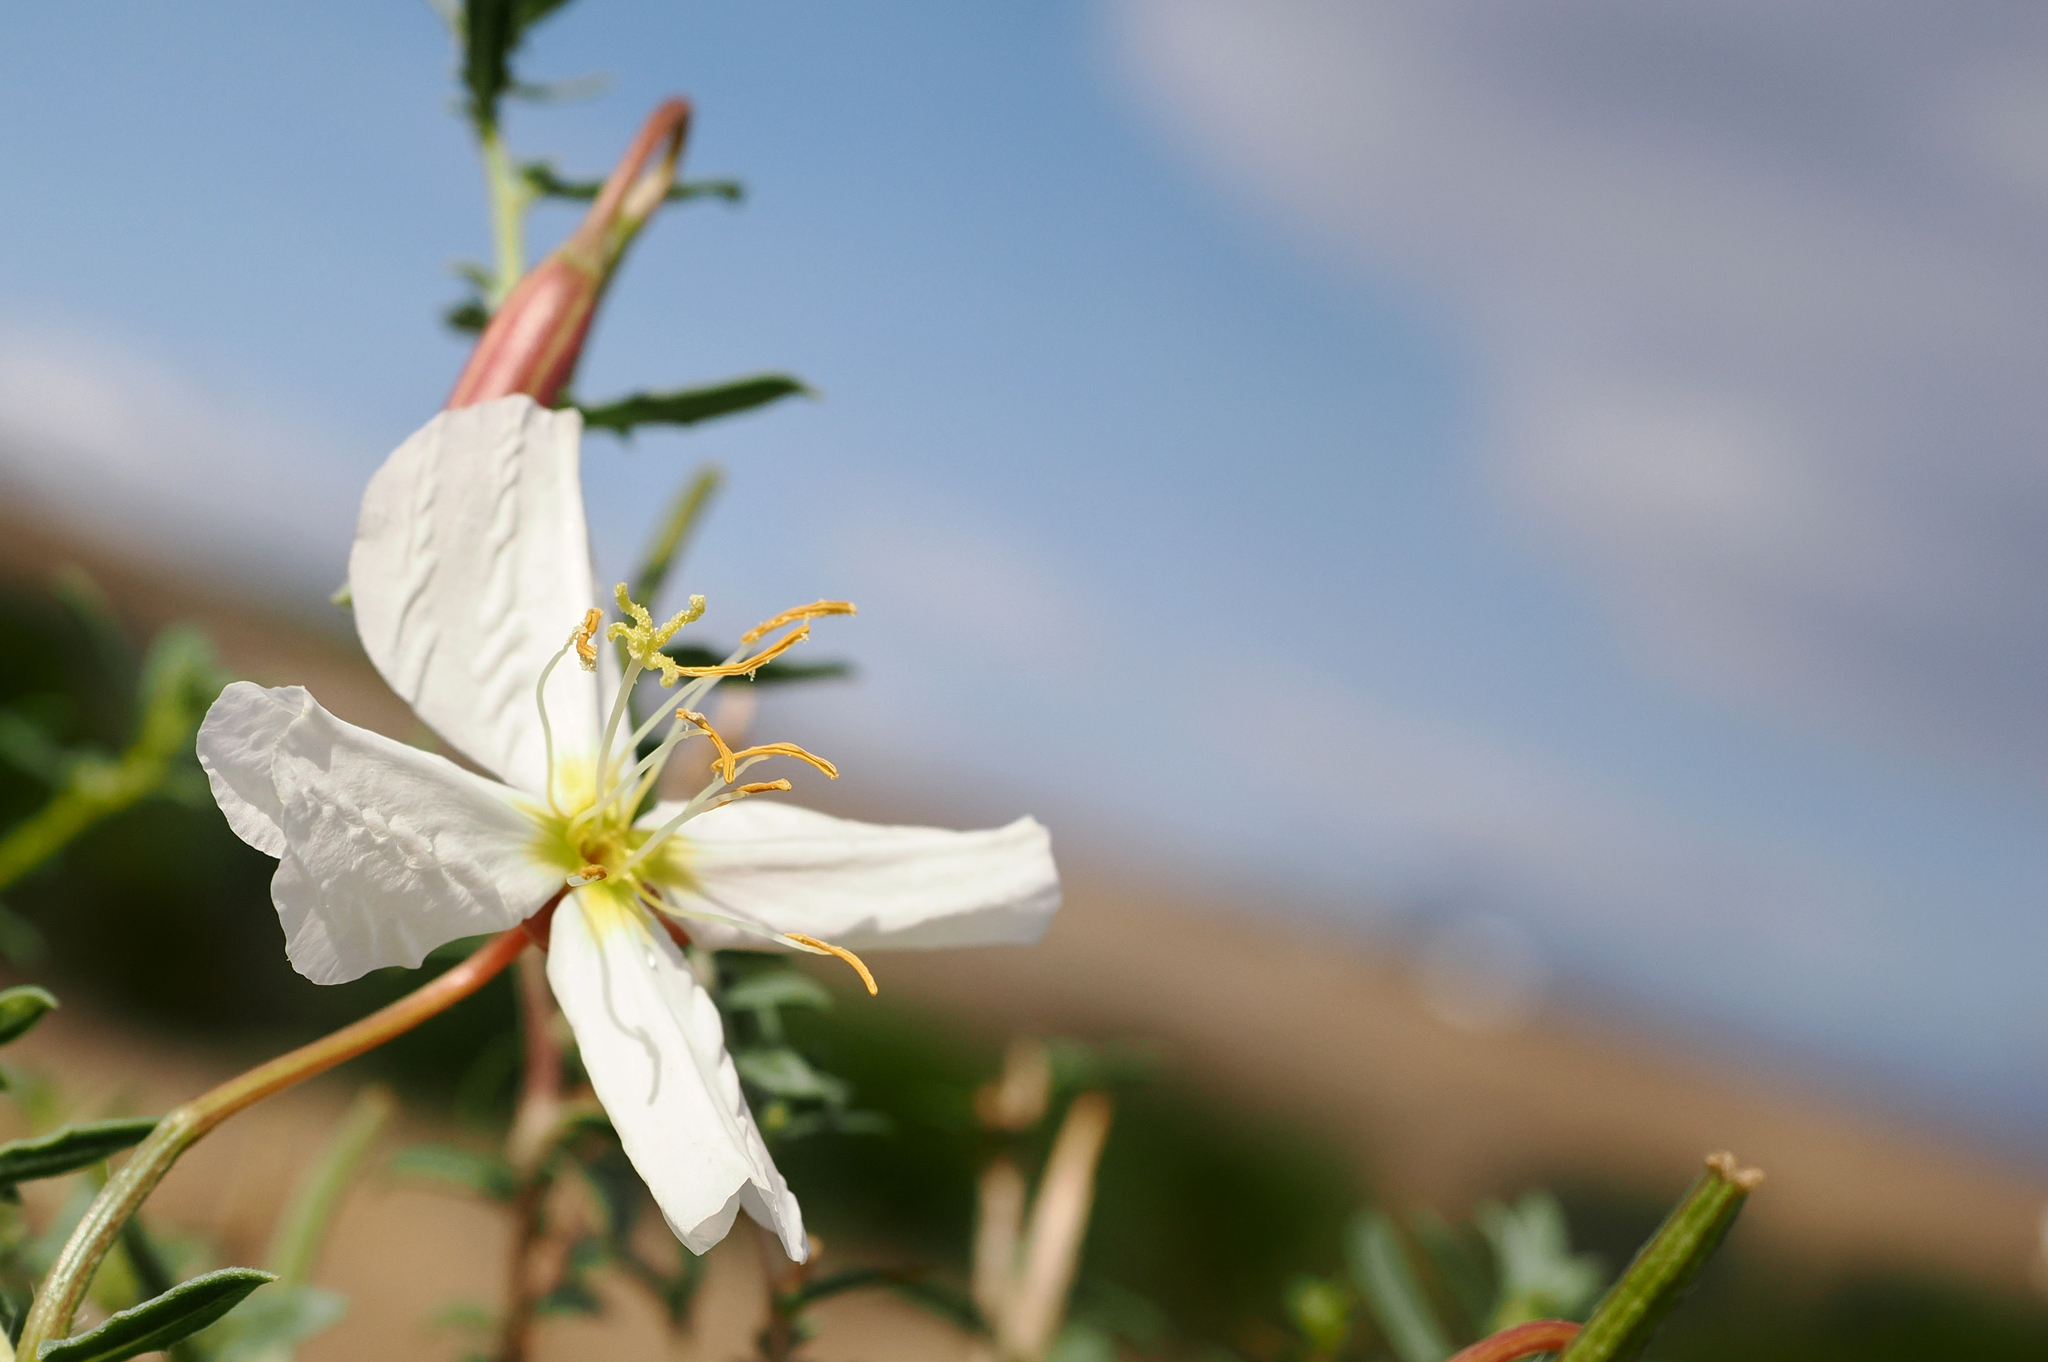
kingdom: Plantae
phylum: Tracheophyta
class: Magnoliopsida
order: Myrtales
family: Onagraceae
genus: Oenothera
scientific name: Oenothera pallida
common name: Pale evening-primrose
